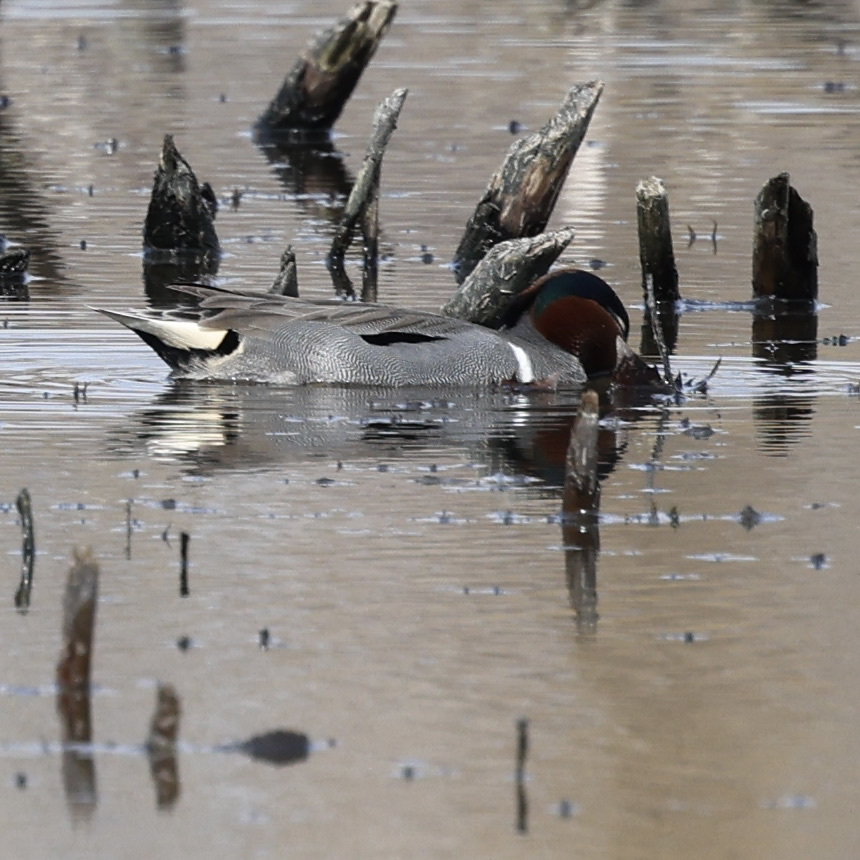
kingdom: Animalia
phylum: Chordata
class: Aves
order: Anseriformes
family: Anatidae
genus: Anas
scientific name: Anas crecca
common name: Eurasian teal
